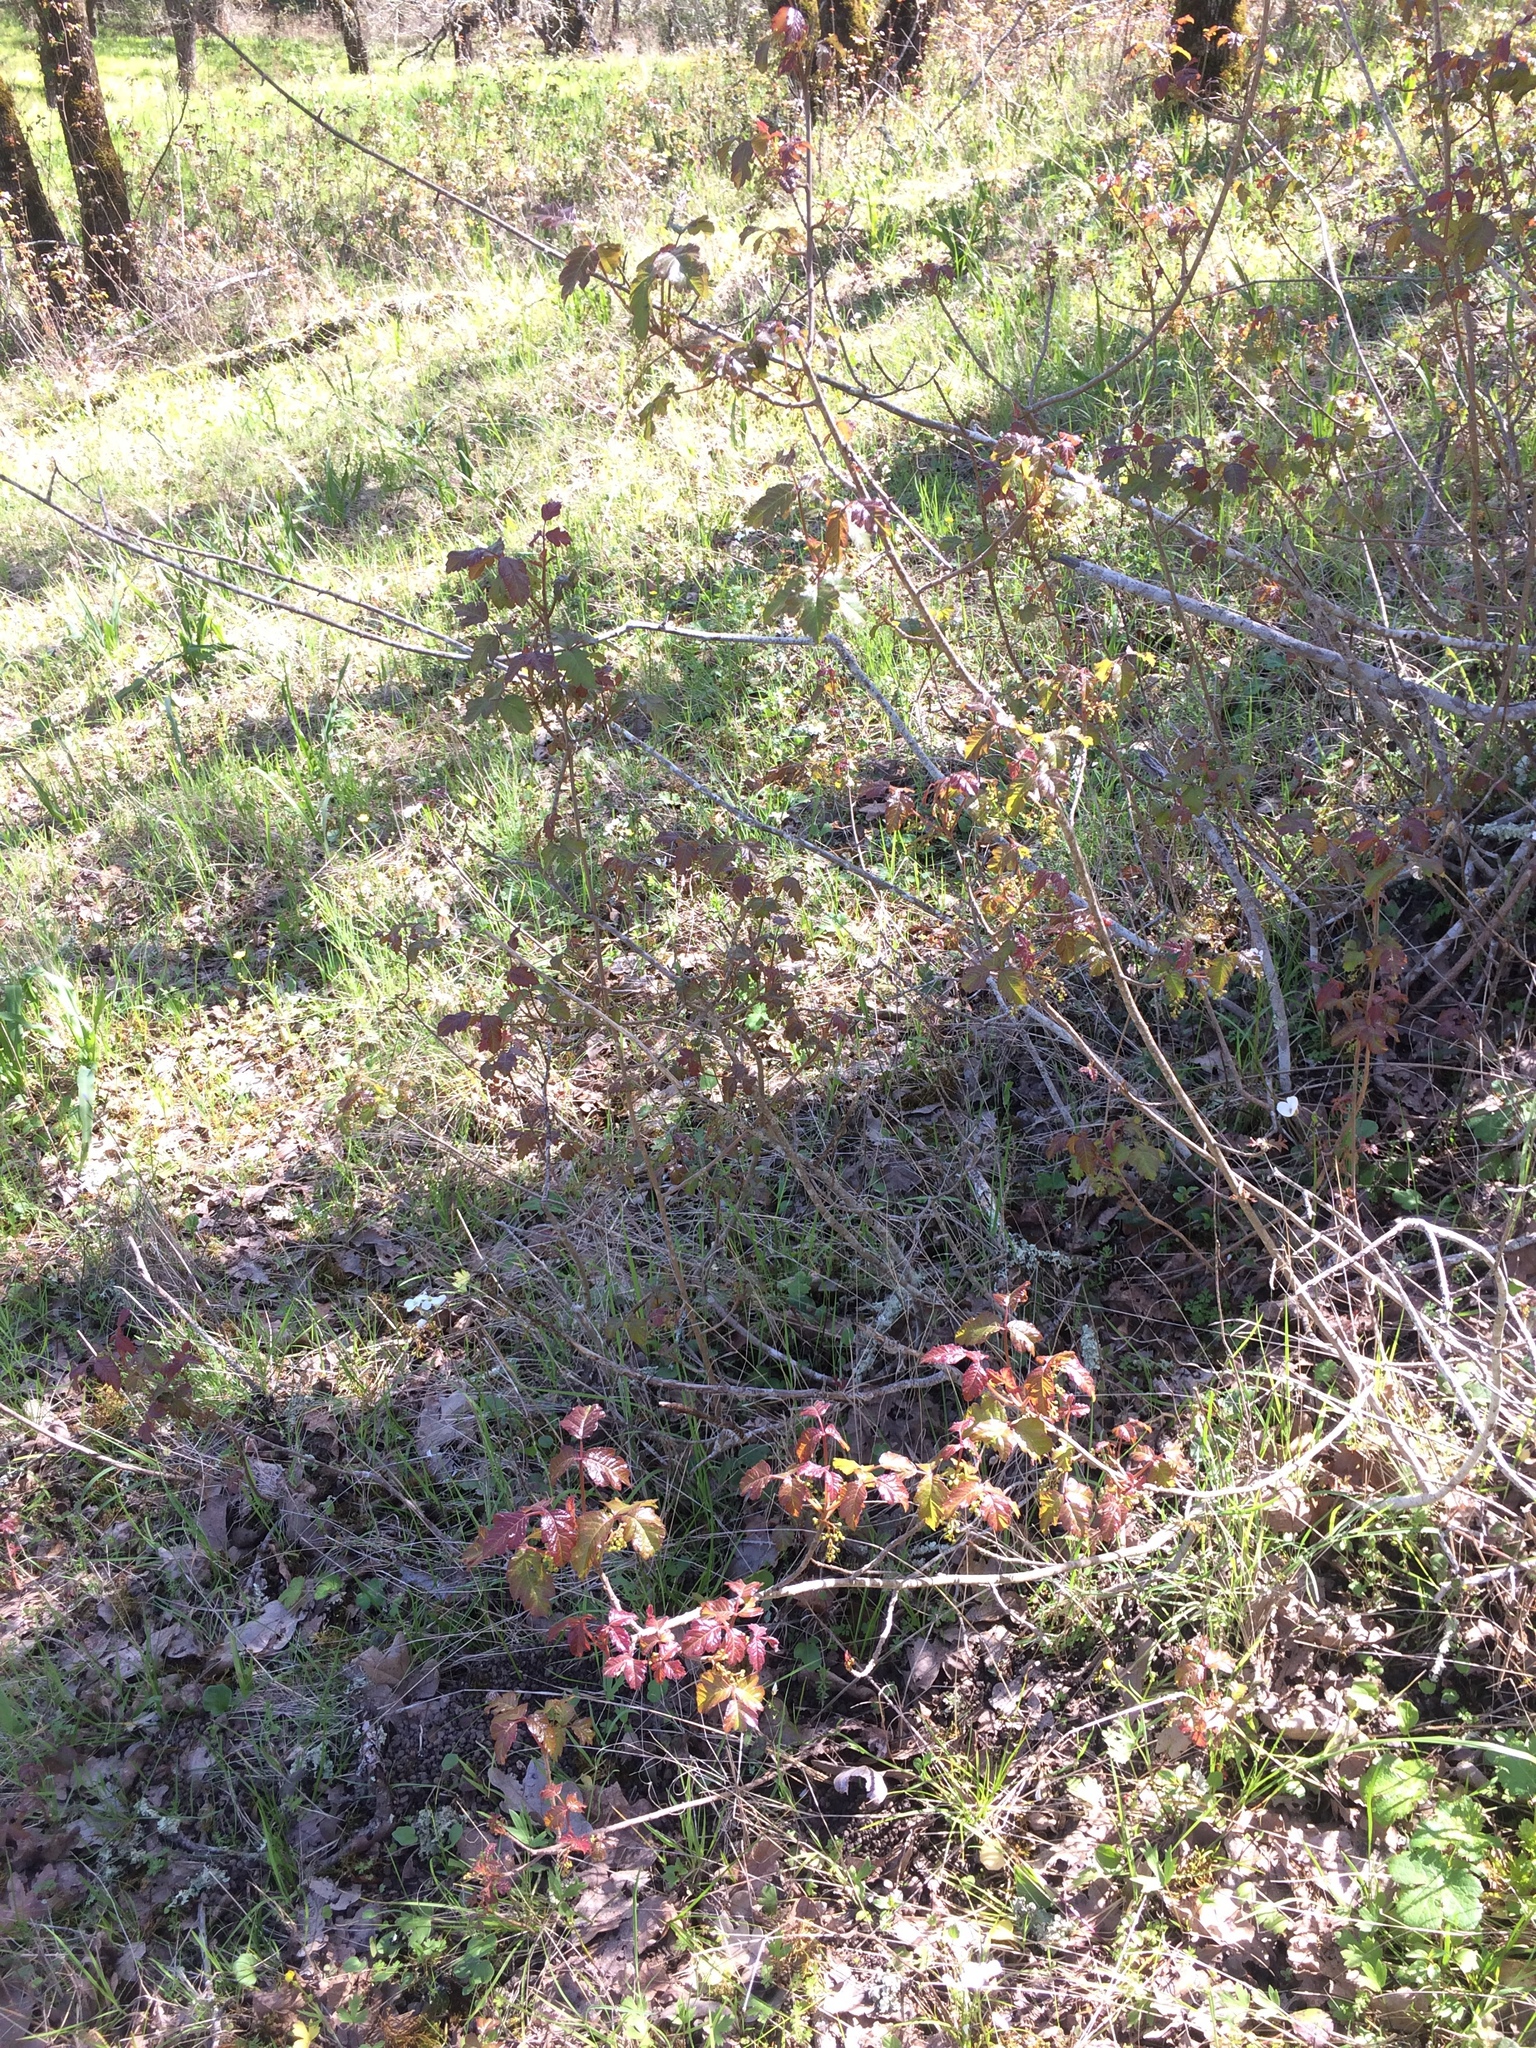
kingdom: Plantae
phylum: Tracheophyta
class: Magnoliopsida
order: Sapindales
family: Anacardiaceae
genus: Toxicodendron
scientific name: Toxicodendron diversilobum
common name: Pacific poison-oak
